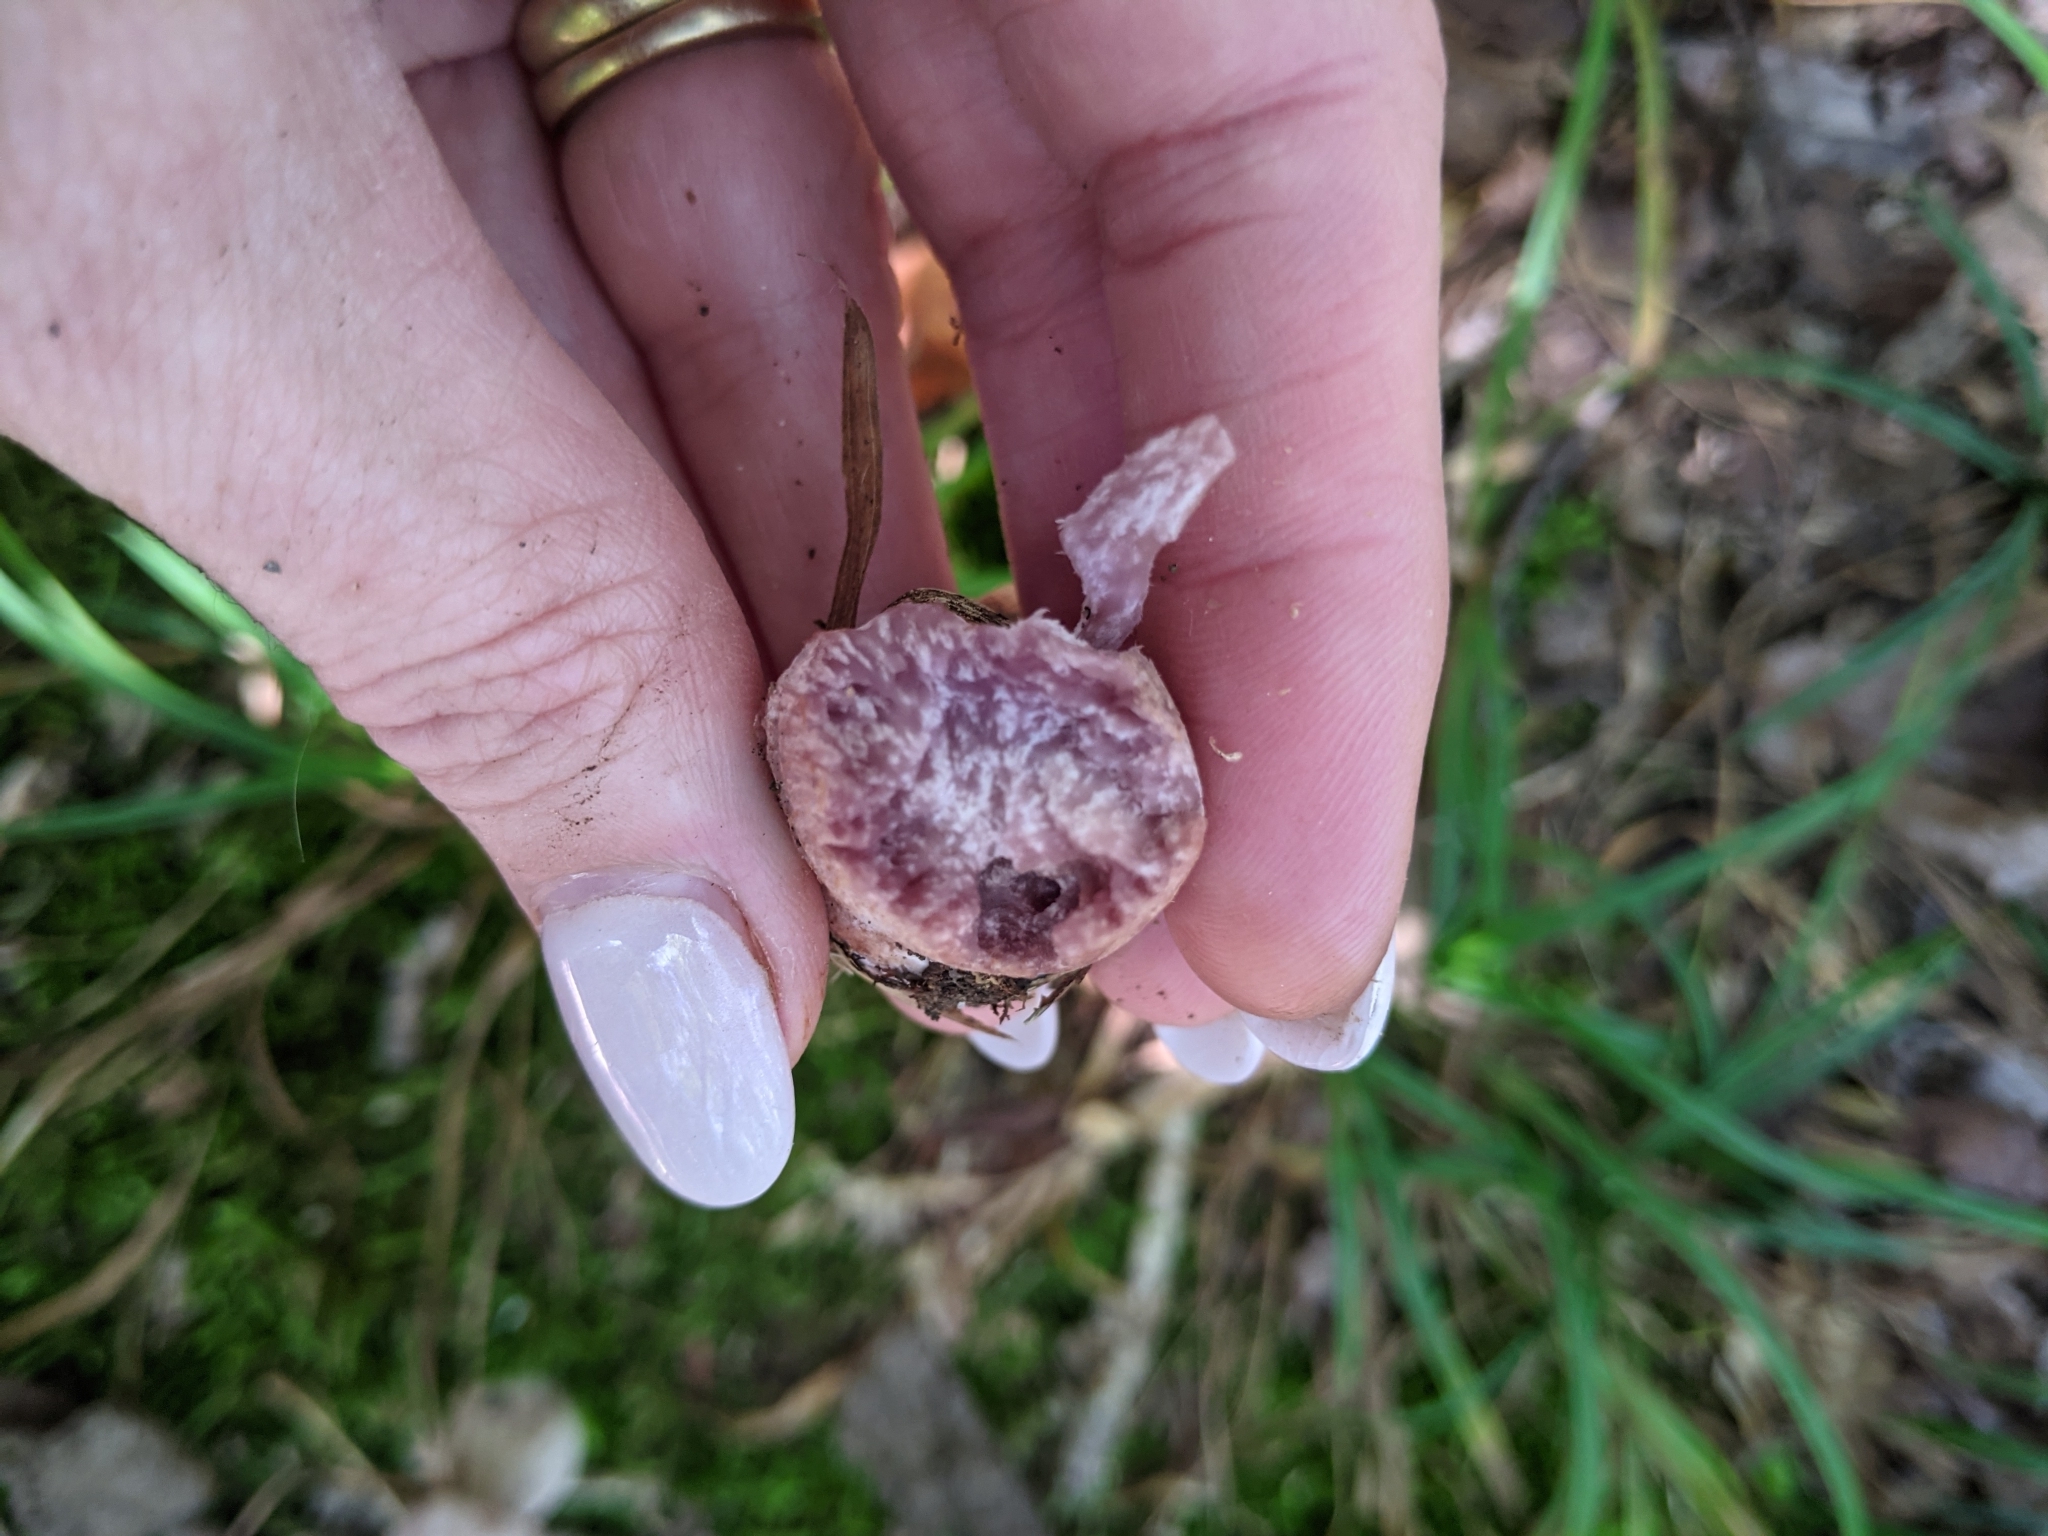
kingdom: Fungi
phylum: Basidiomycota
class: Agaricomycetes
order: Agaricales
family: Hydnangiaceae
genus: Laccaria
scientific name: Laccaria ochropurpurea
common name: Purple laccaria
